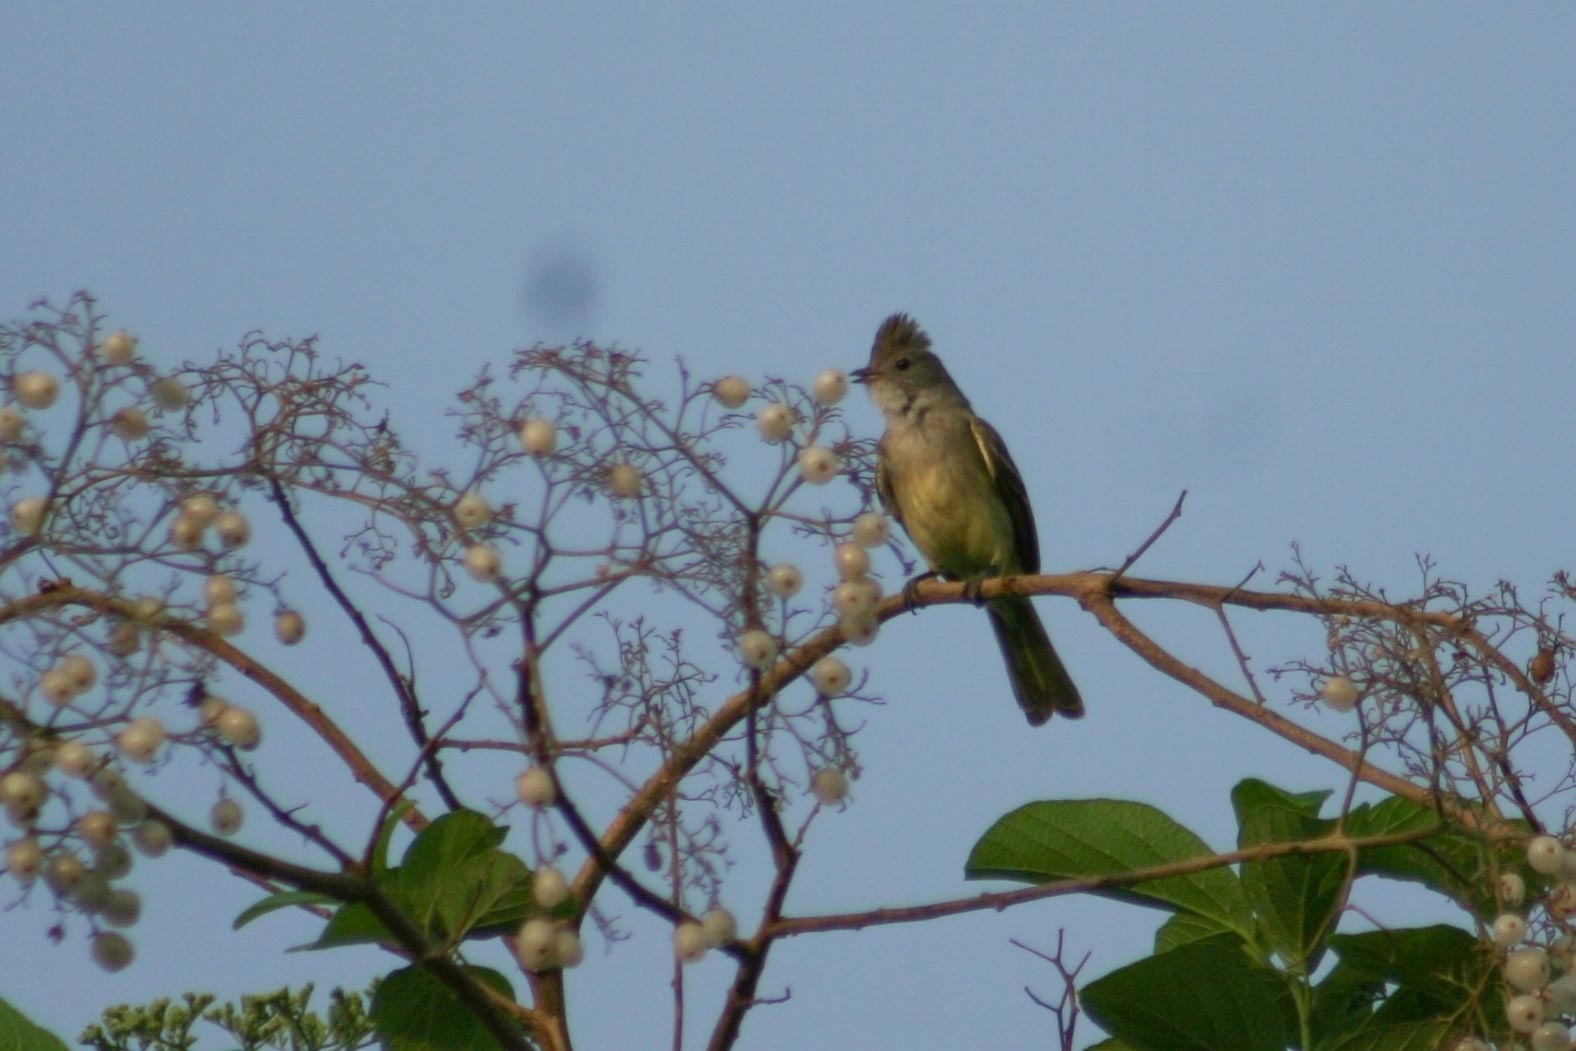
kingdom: Animalia
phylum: Chordata
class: Aves
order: Passeriformes
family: Tyrannidae
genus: Elaenia
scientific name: Elaenia flavogaster
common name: Yellow-bellied elaenia
